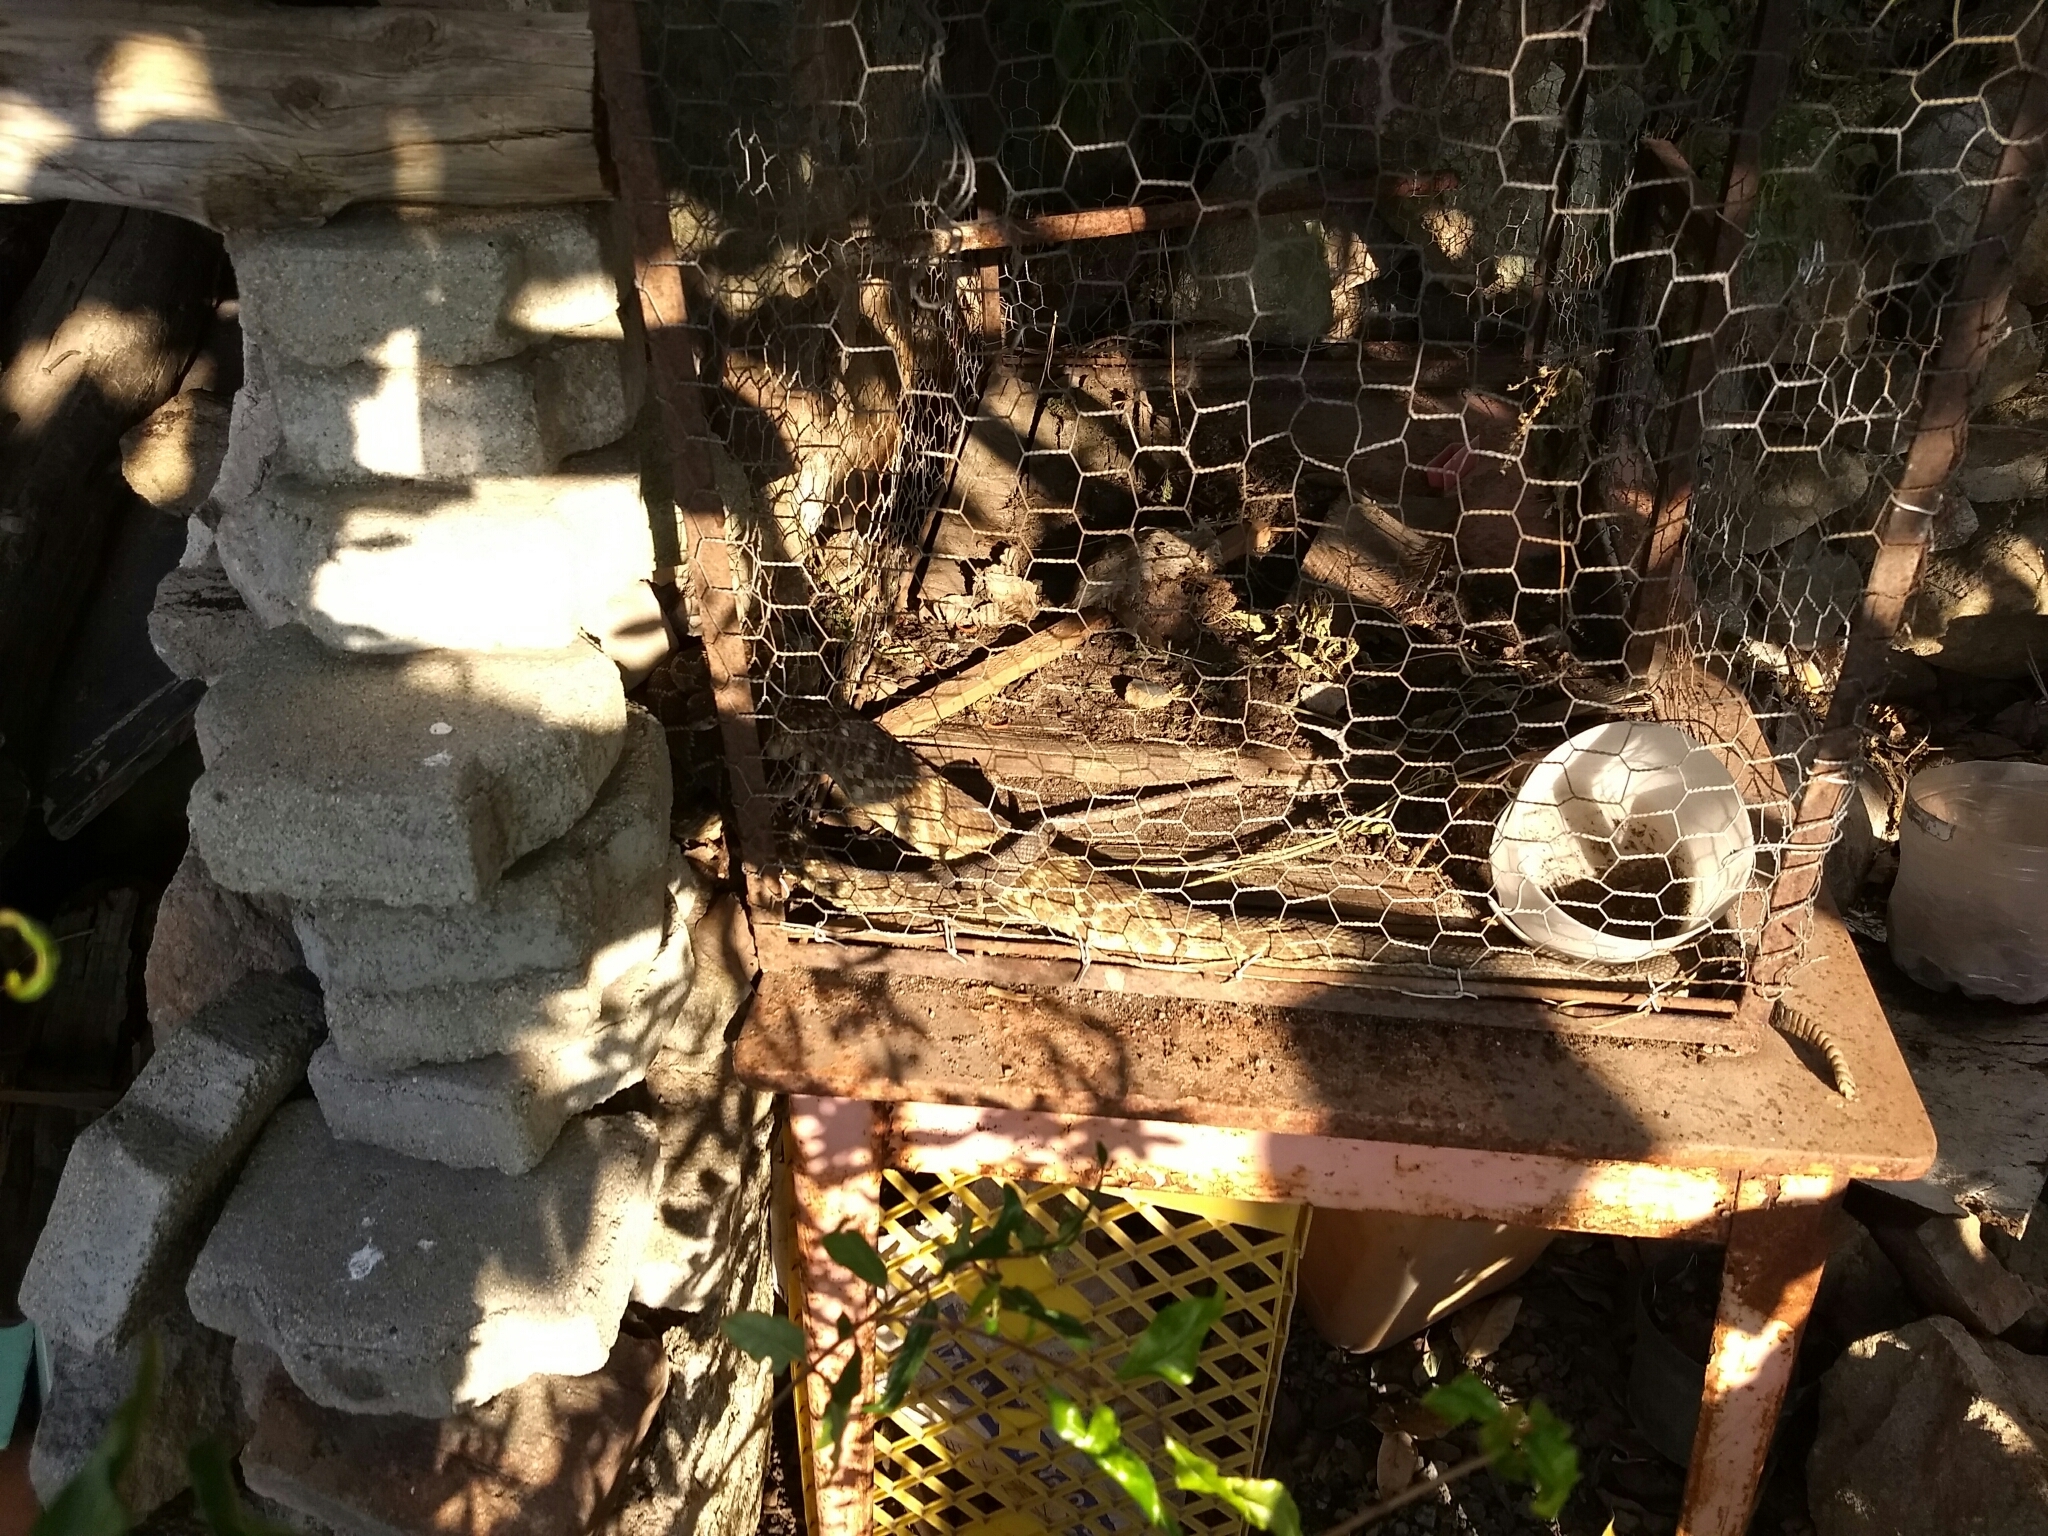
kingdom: Animalia
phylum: Chordata
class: Squamata
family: Viperidae
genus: Crotalus
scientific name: Crotalus molossus
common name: Black tailed rattlesnake
